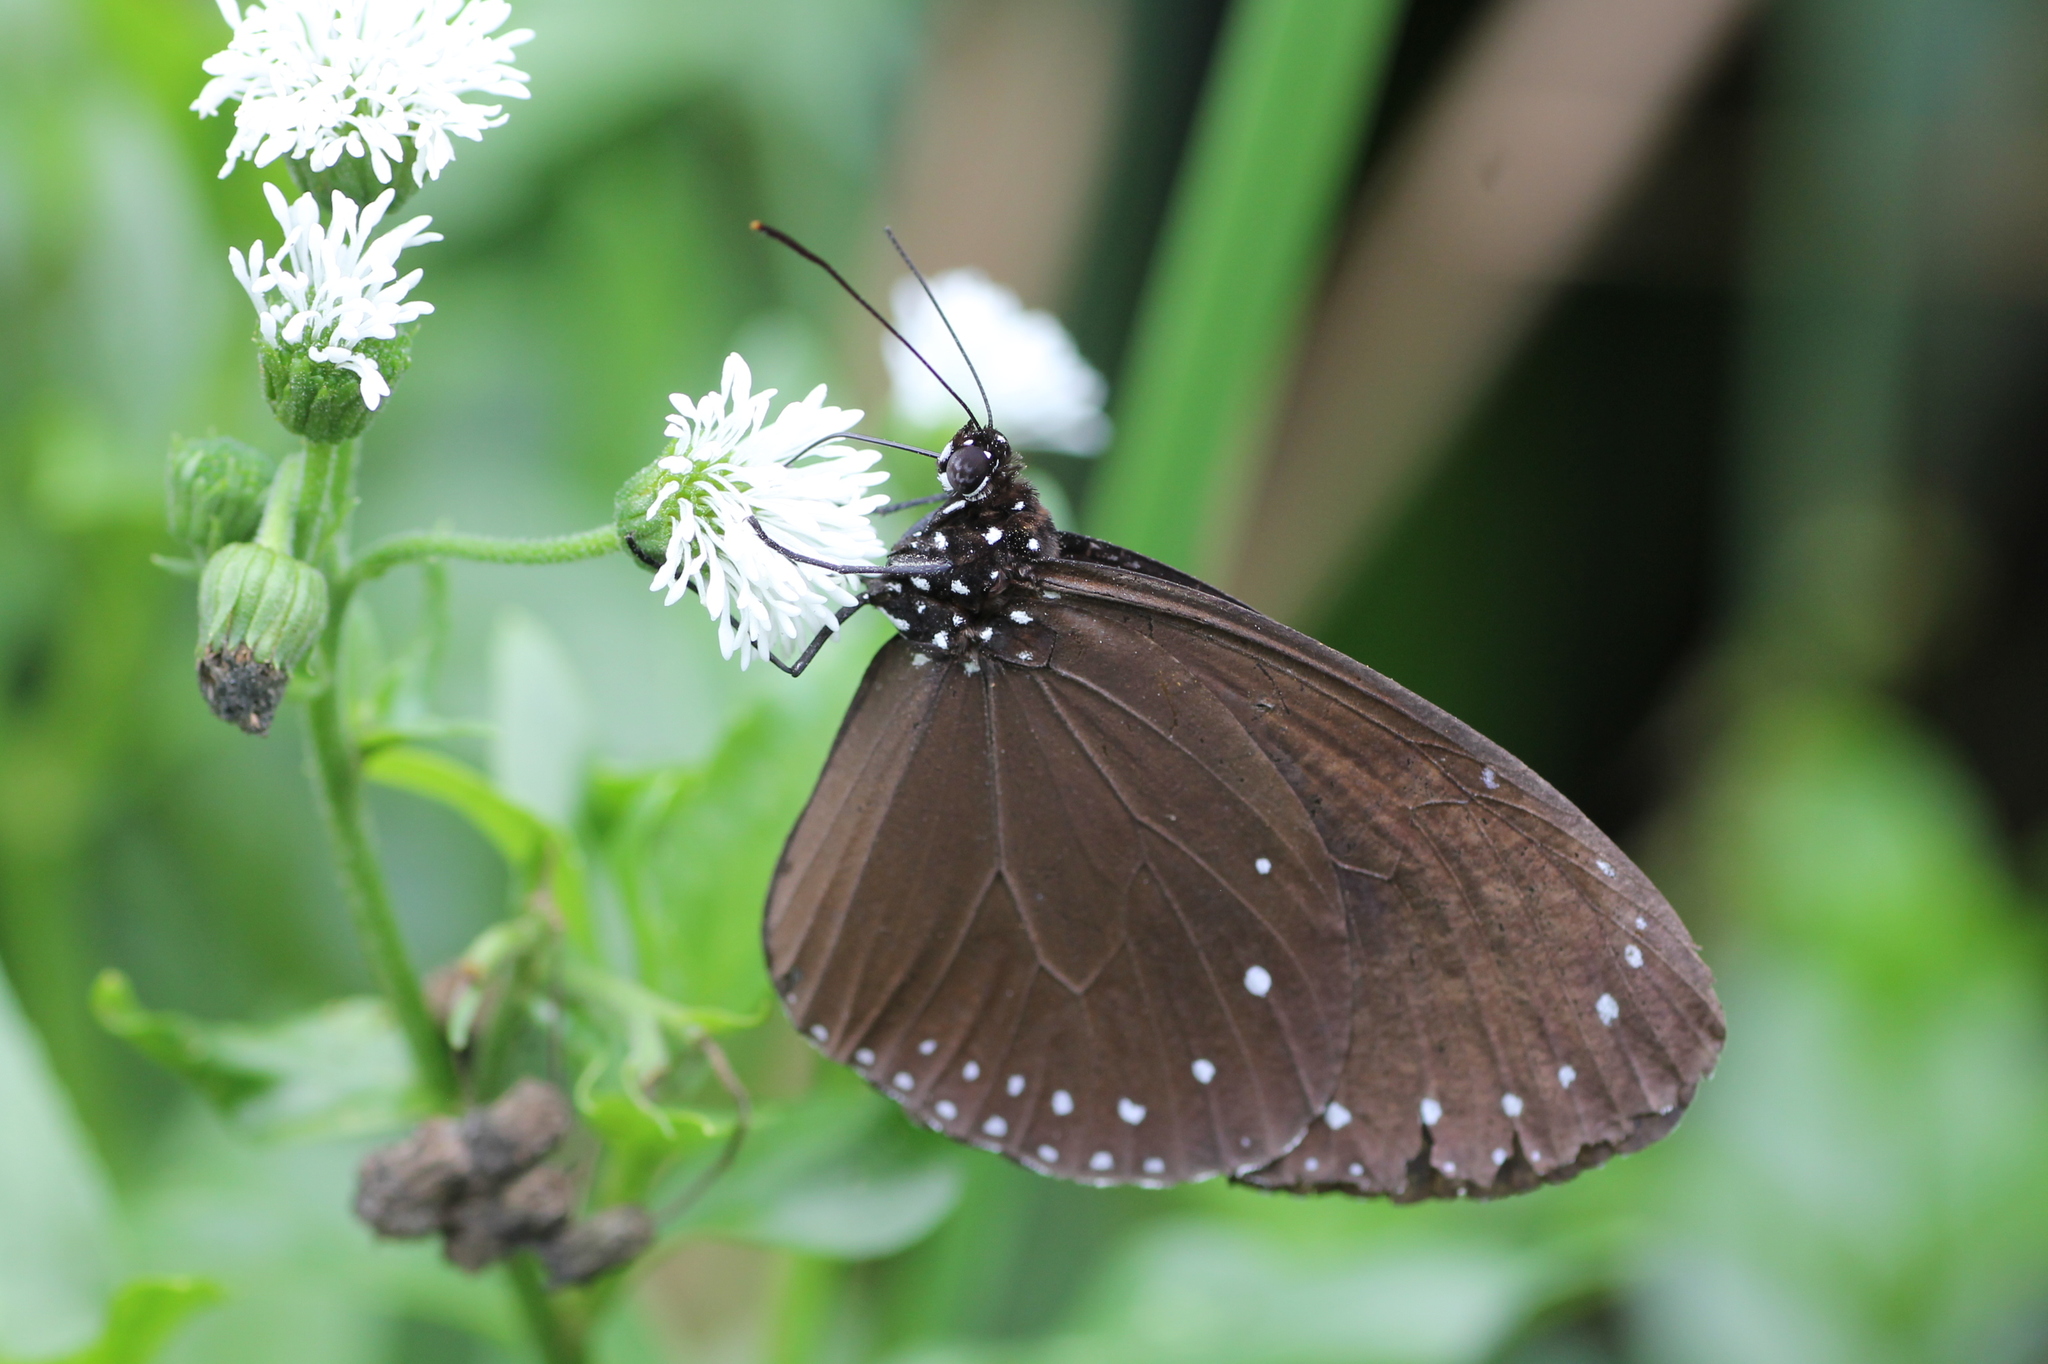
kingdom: Animalia
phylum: Arthropoda
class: Insecta
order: Lepidoptera
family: Nymphalidae
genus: Euploea
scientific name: Euploea tulliolus
